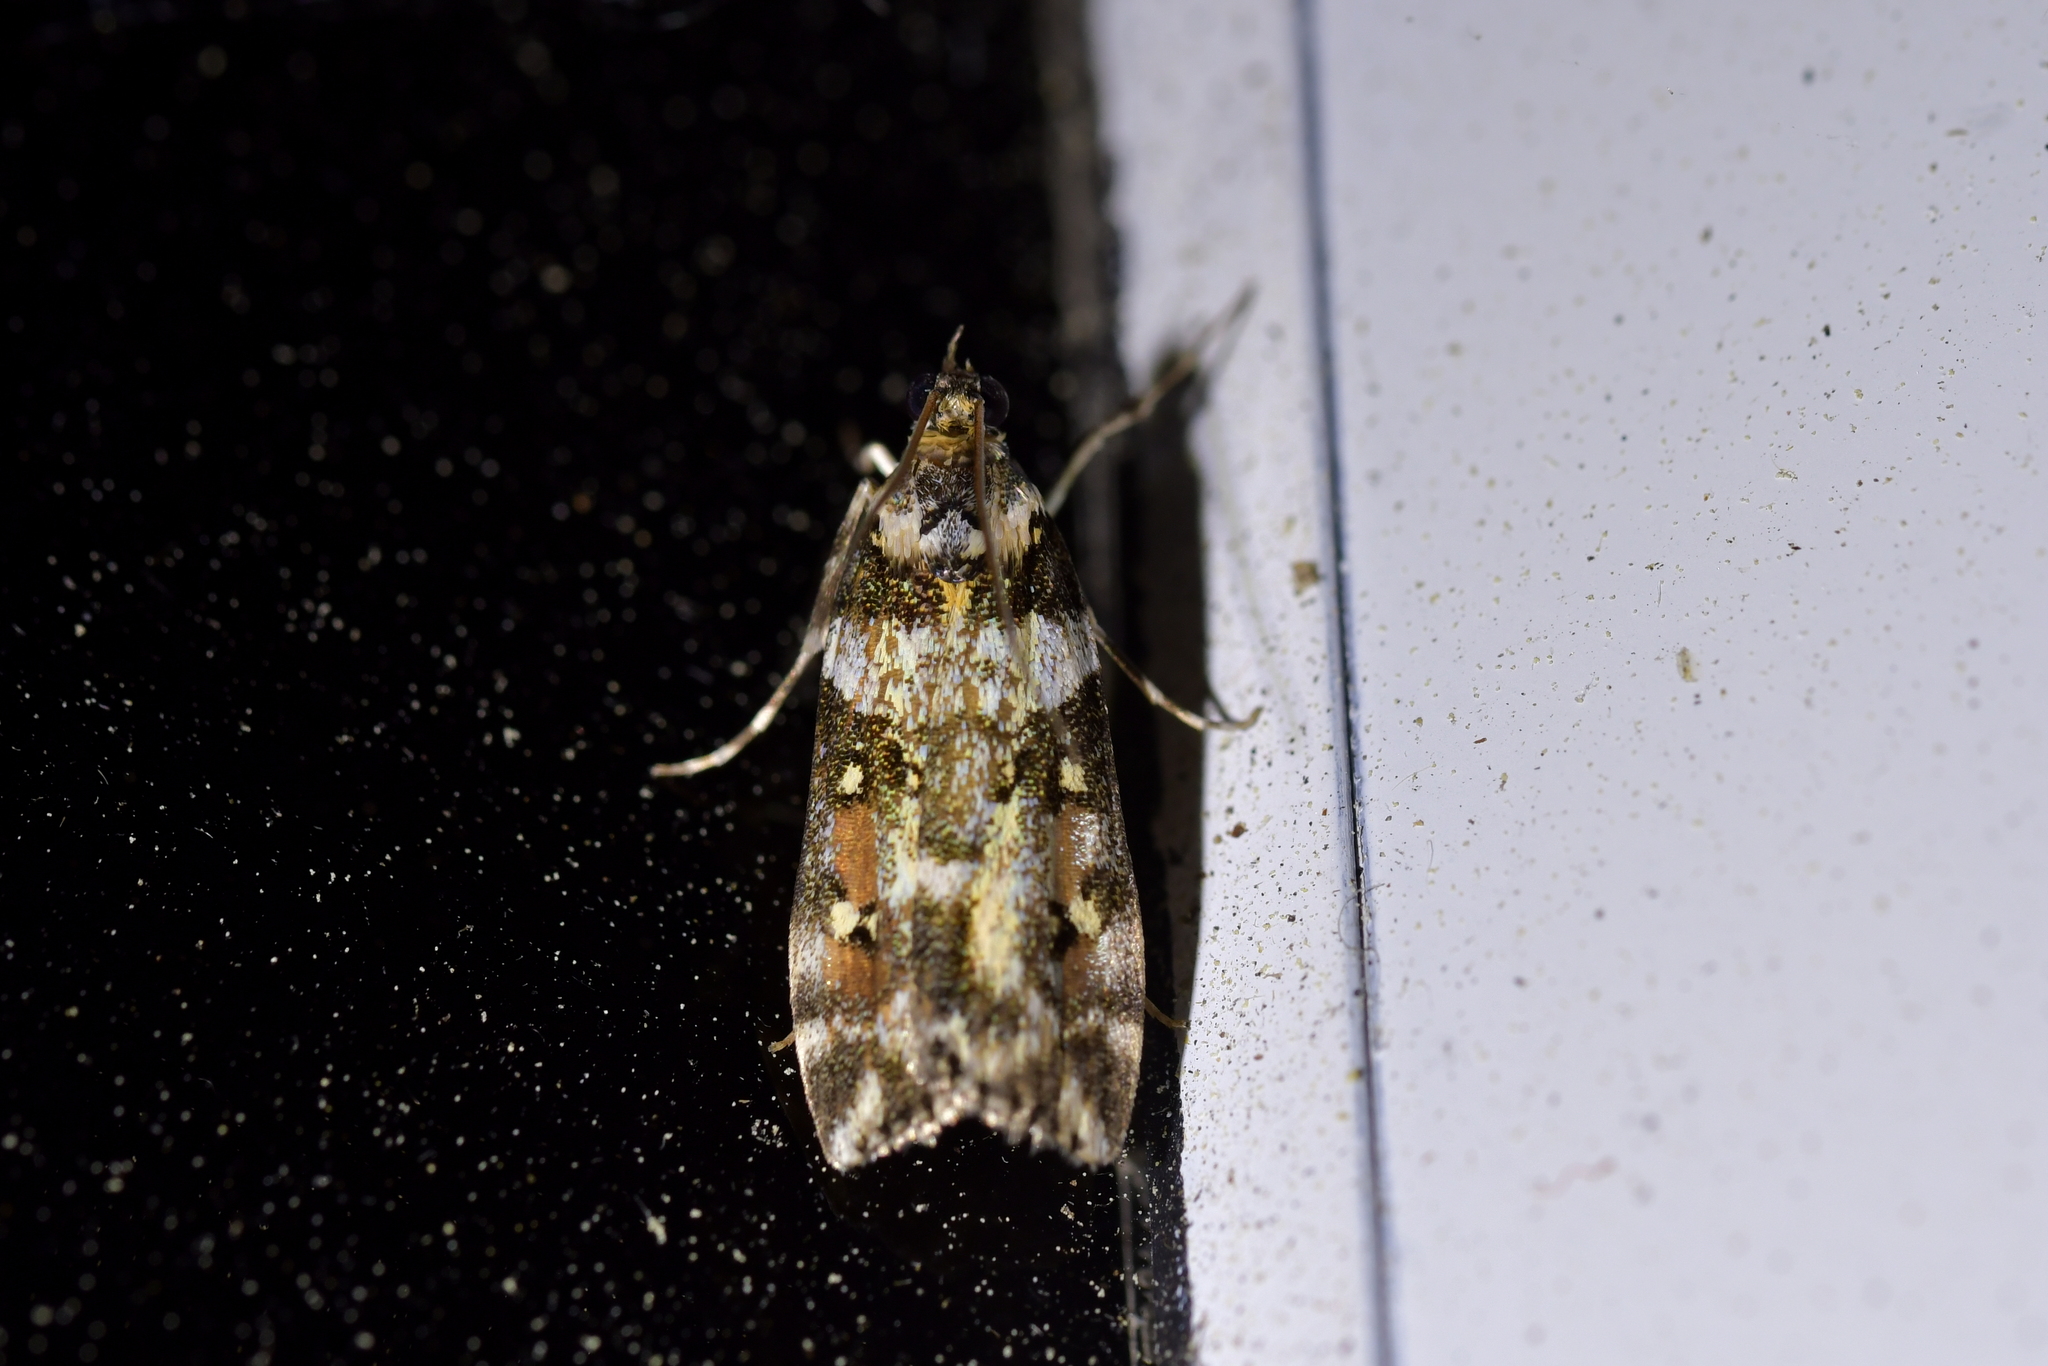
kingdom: Animalia
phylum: Arthropoda
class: Insecta
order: Lepidoptera
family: Crambidae
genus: Eudonia
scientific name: Eudonia diphtheralis
